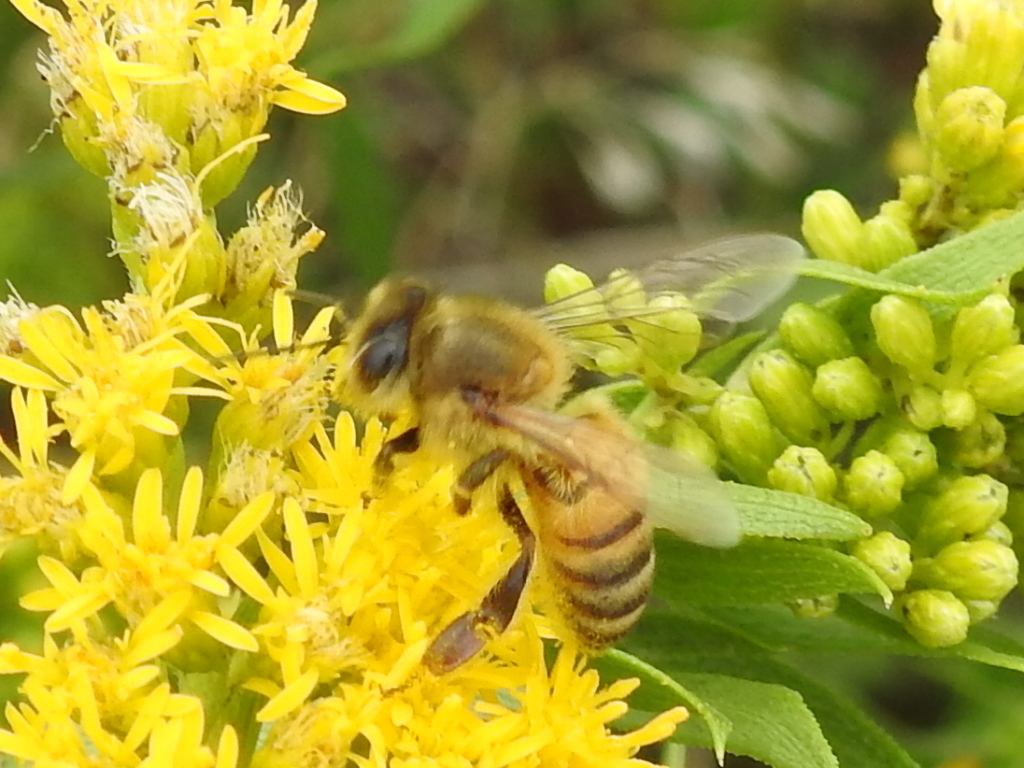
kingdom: Animalia
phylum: Arthropoda
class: Insecta
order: Hymenoptera
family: Apidae
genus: Apis
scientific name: Apis mellifera
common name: Honey bee
